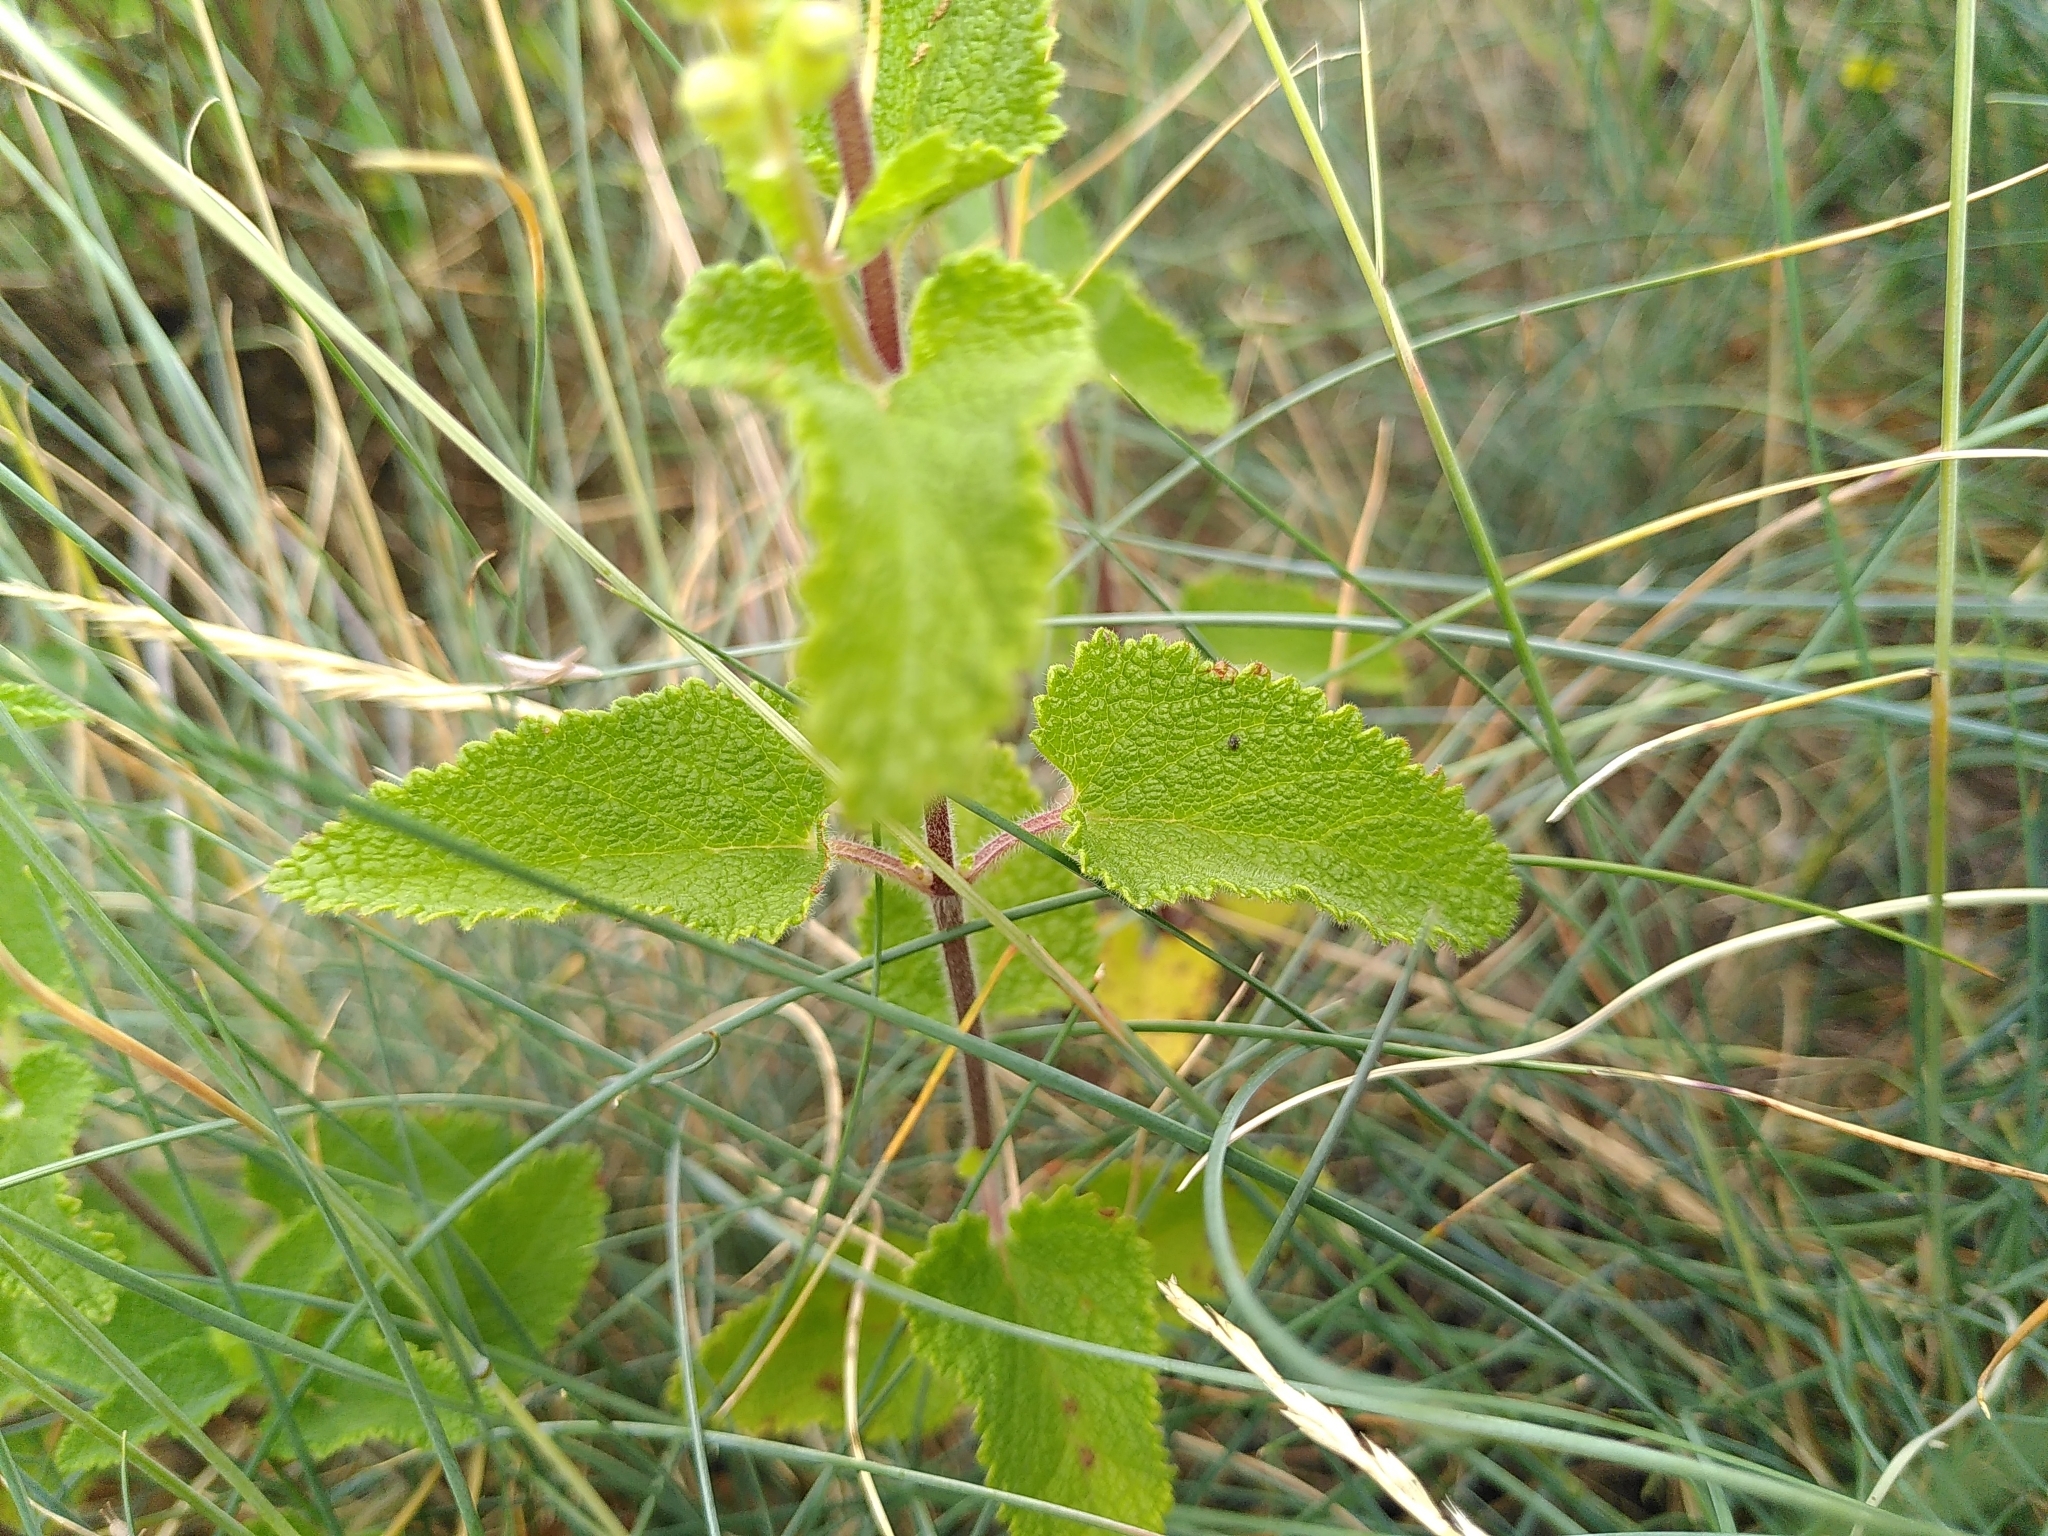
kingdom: Plantae
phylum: Tracheophyta
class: Magnoliopsida
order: Lamiales
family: Lamiaceae
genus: Teucrium
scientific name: Teucrium scorodonia
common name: Woodland germander
